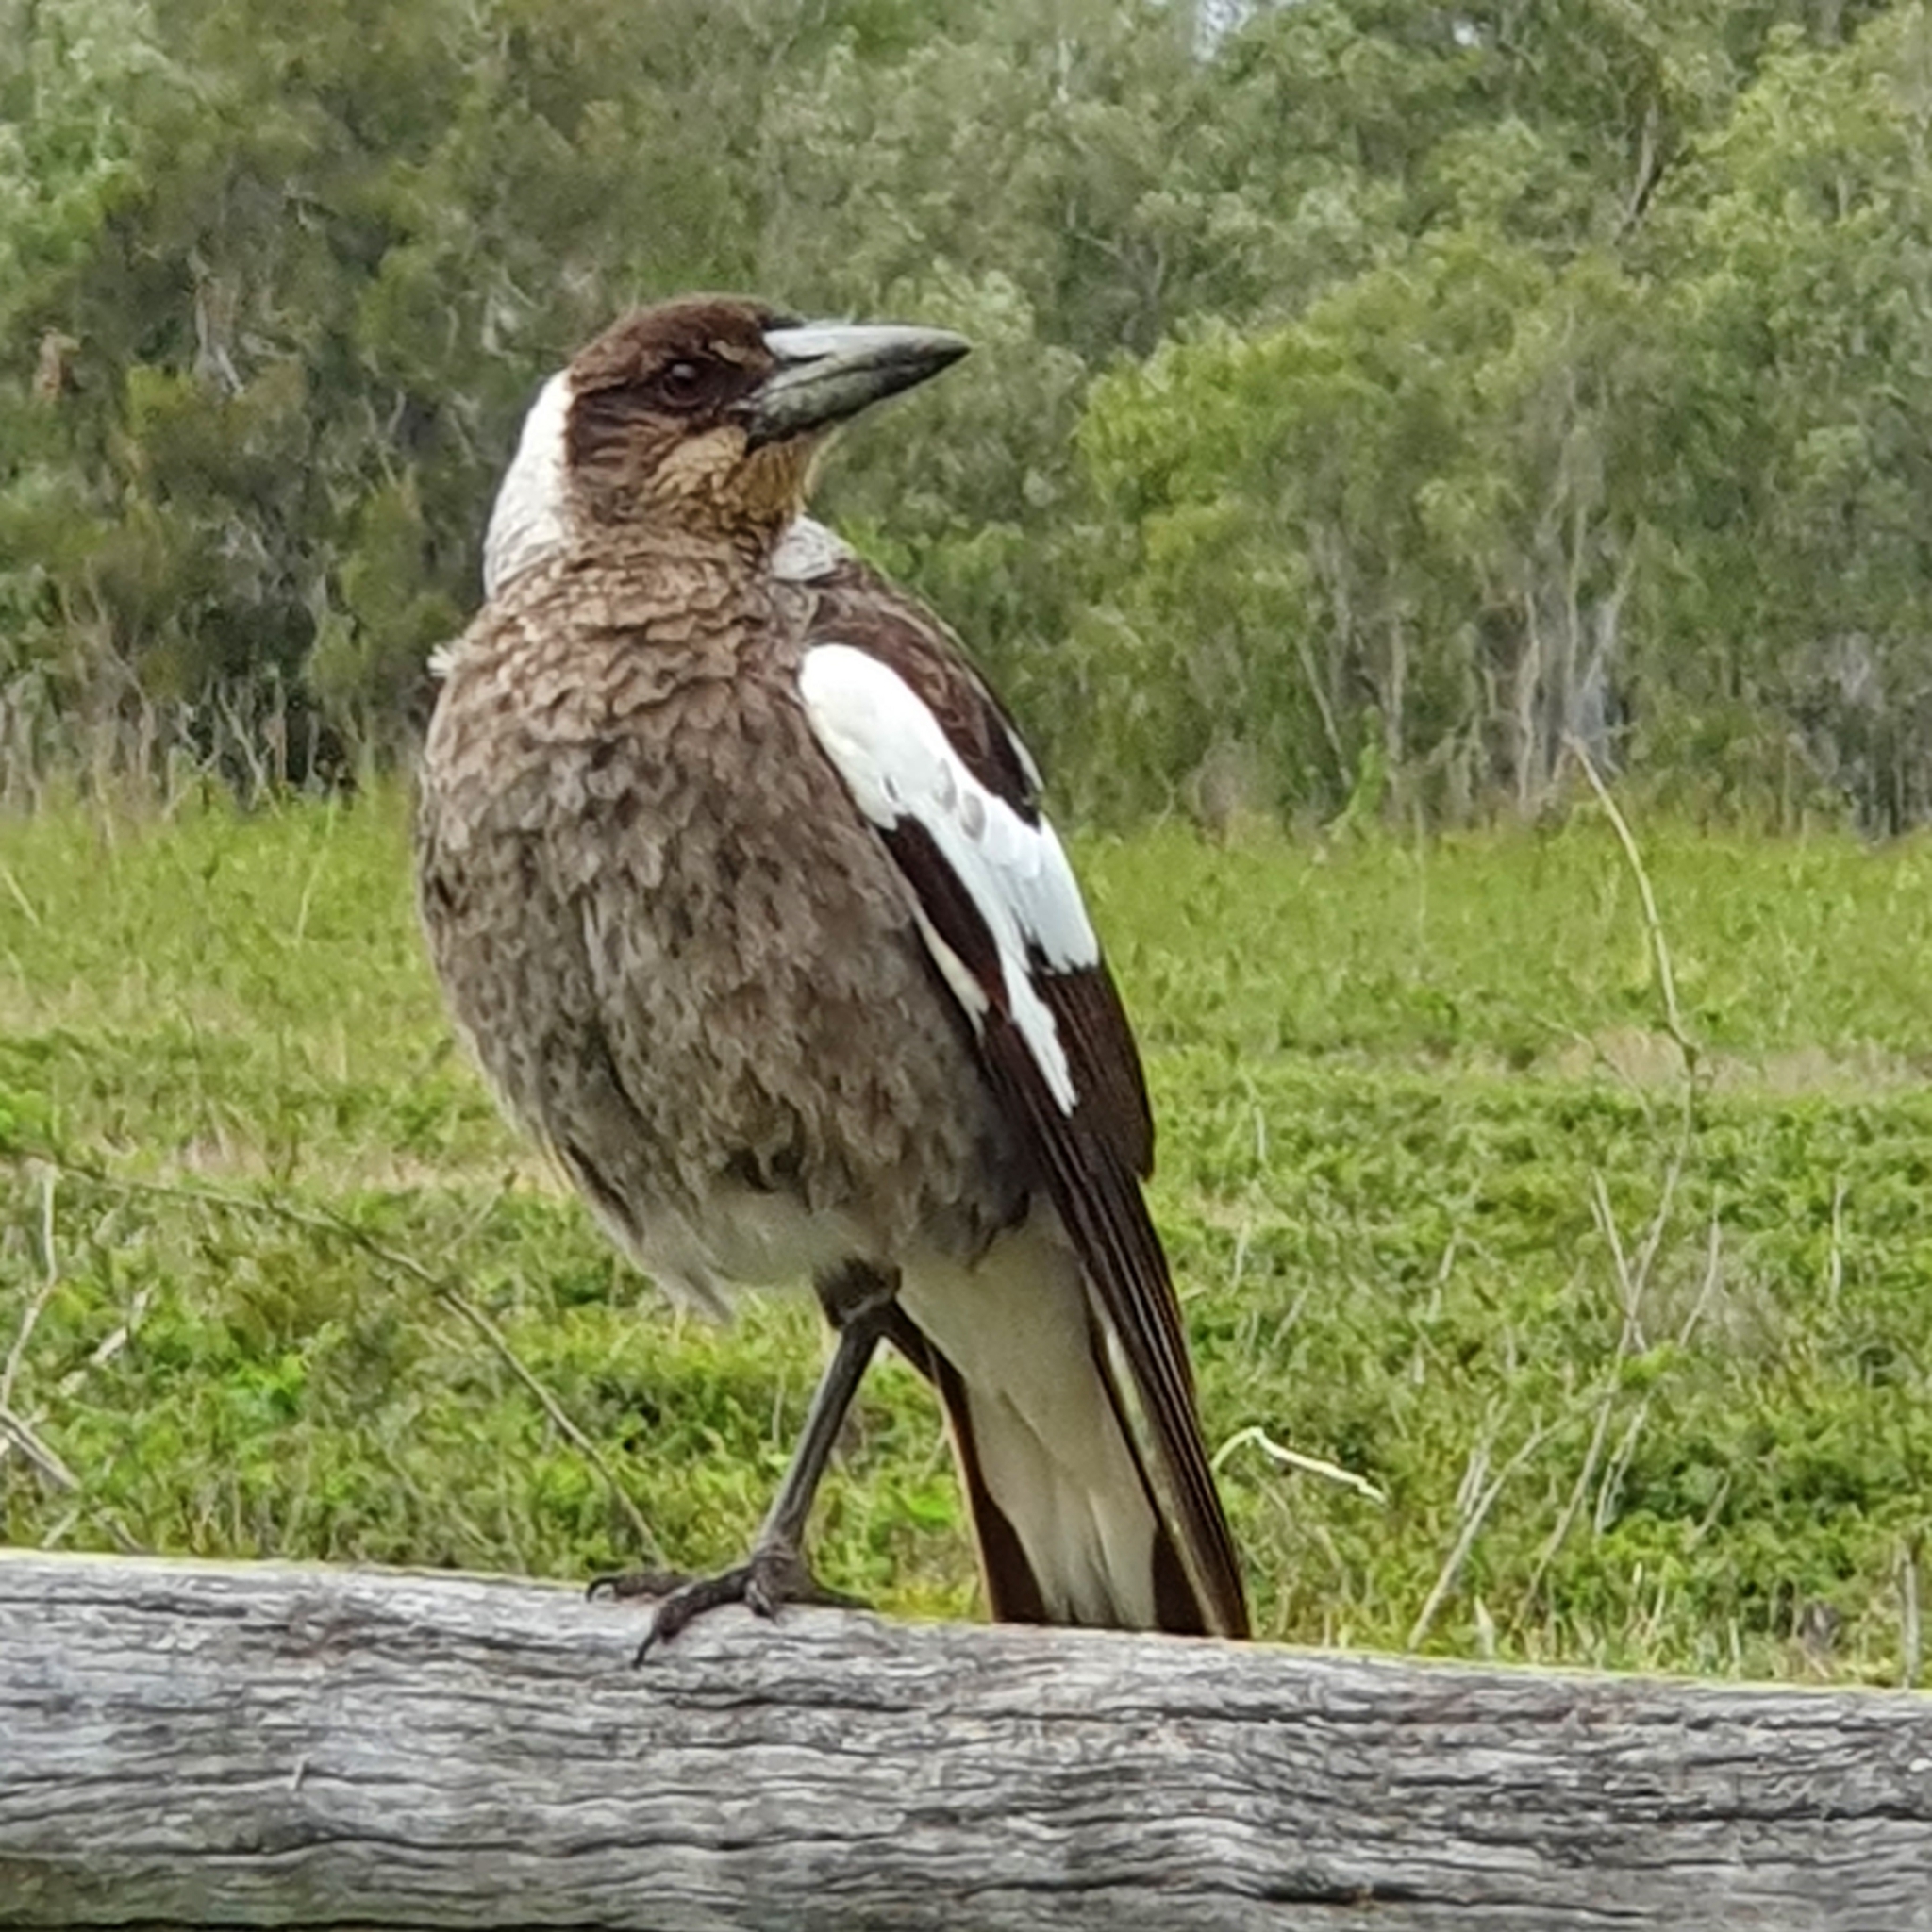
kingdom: Animalia
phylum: Chordata
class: Aves
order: Passeriformes
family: Cracticidae
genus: Gymnorhina
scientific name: Gymnorhina tibicen
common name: Australian magpie
